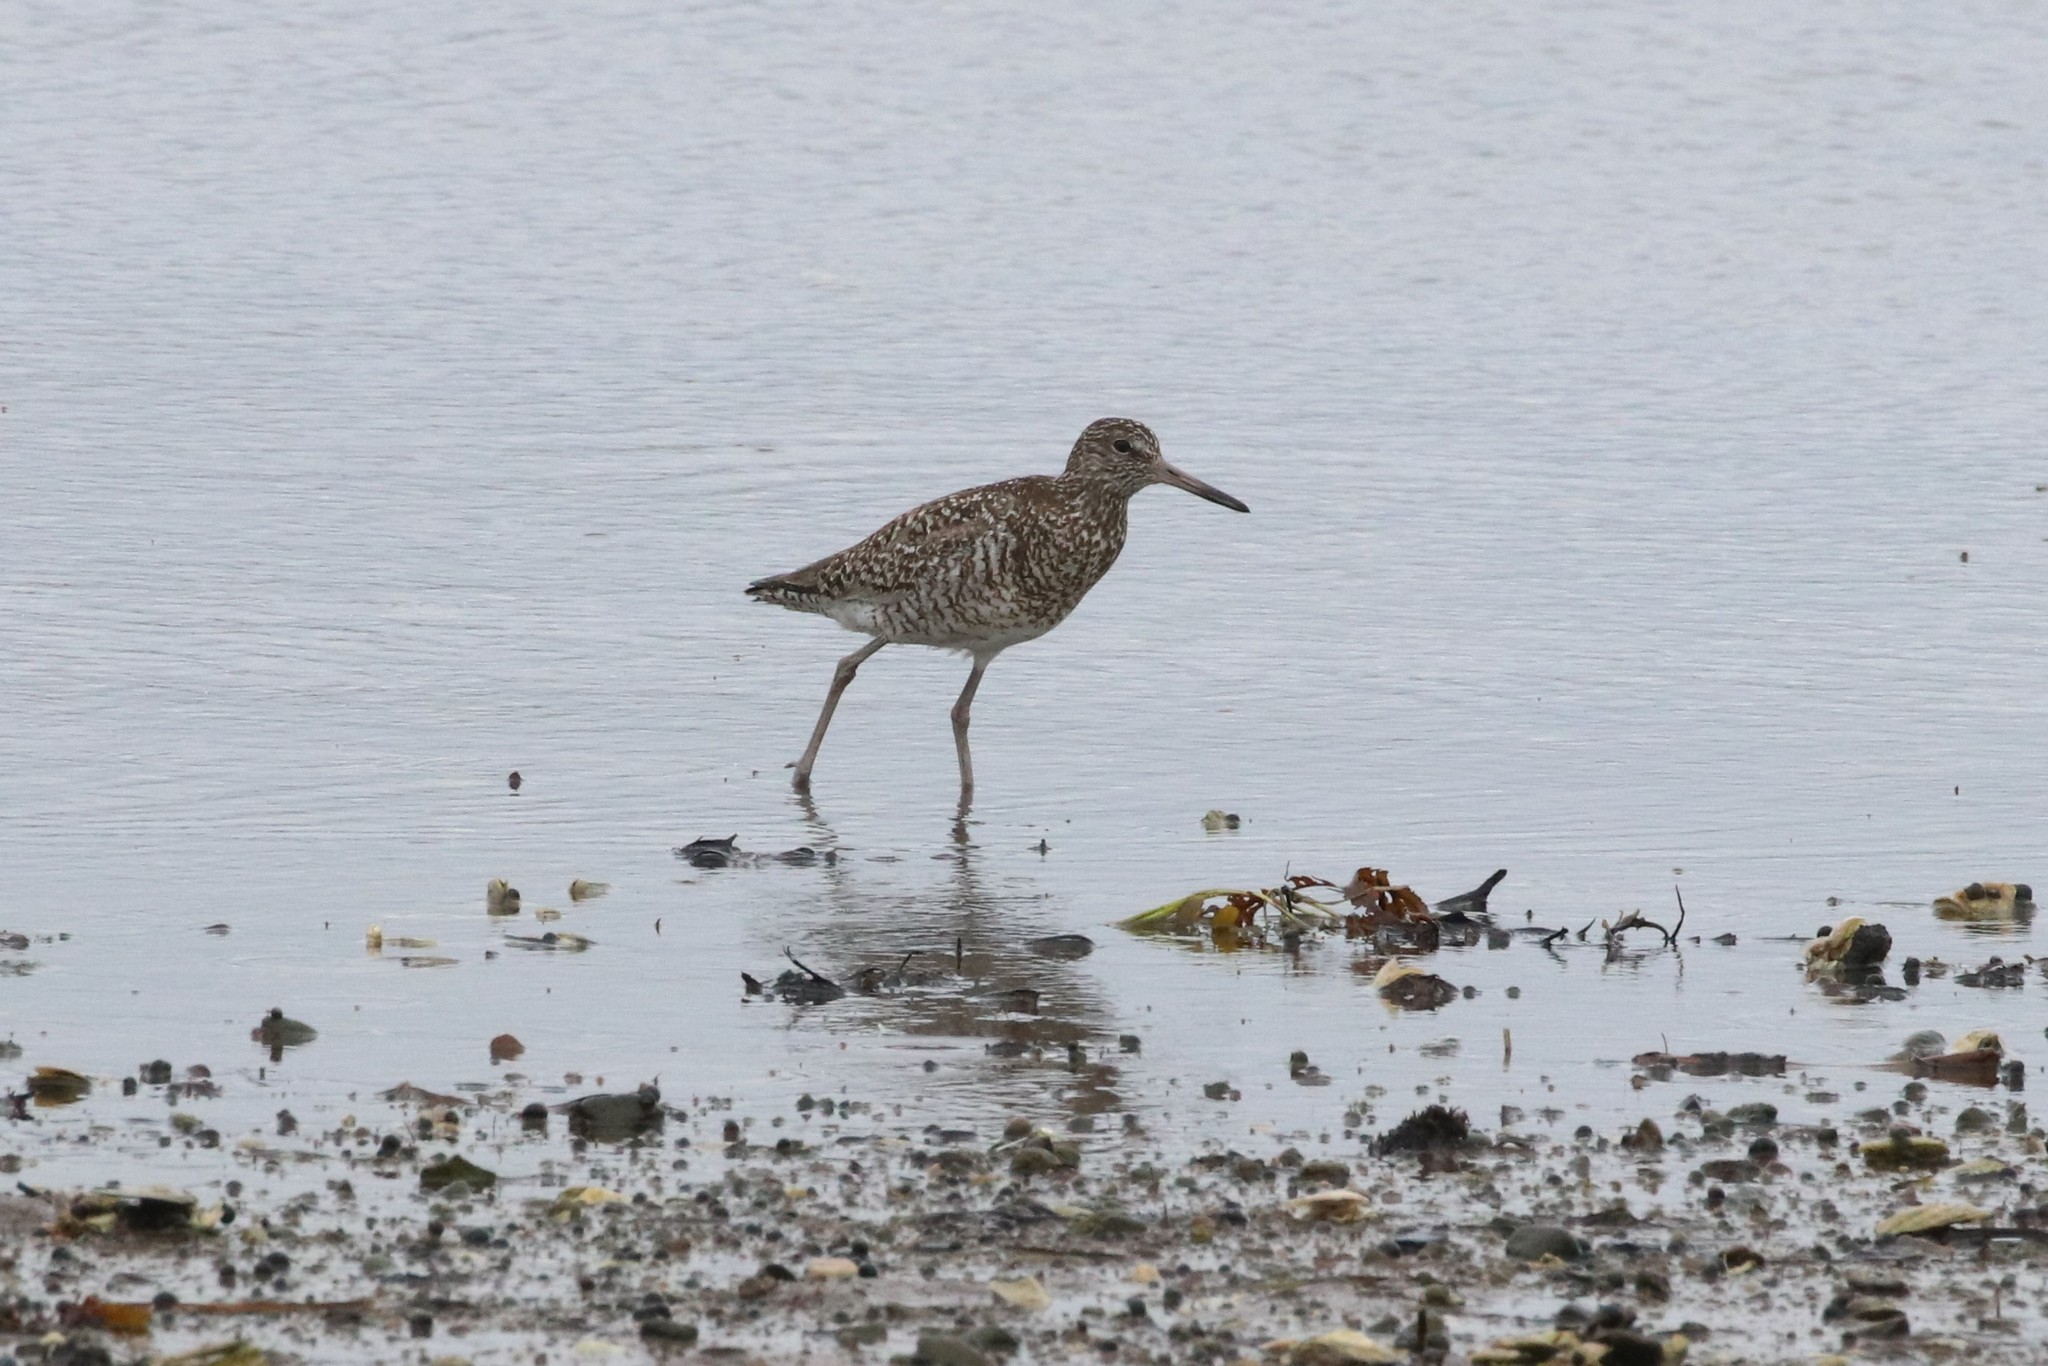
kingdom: Animalia
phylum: Chordata
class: Aves
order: Charadriiformes
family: Scolopacidae
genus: Tringa
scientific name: Tringa semipalmata
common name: Willet
